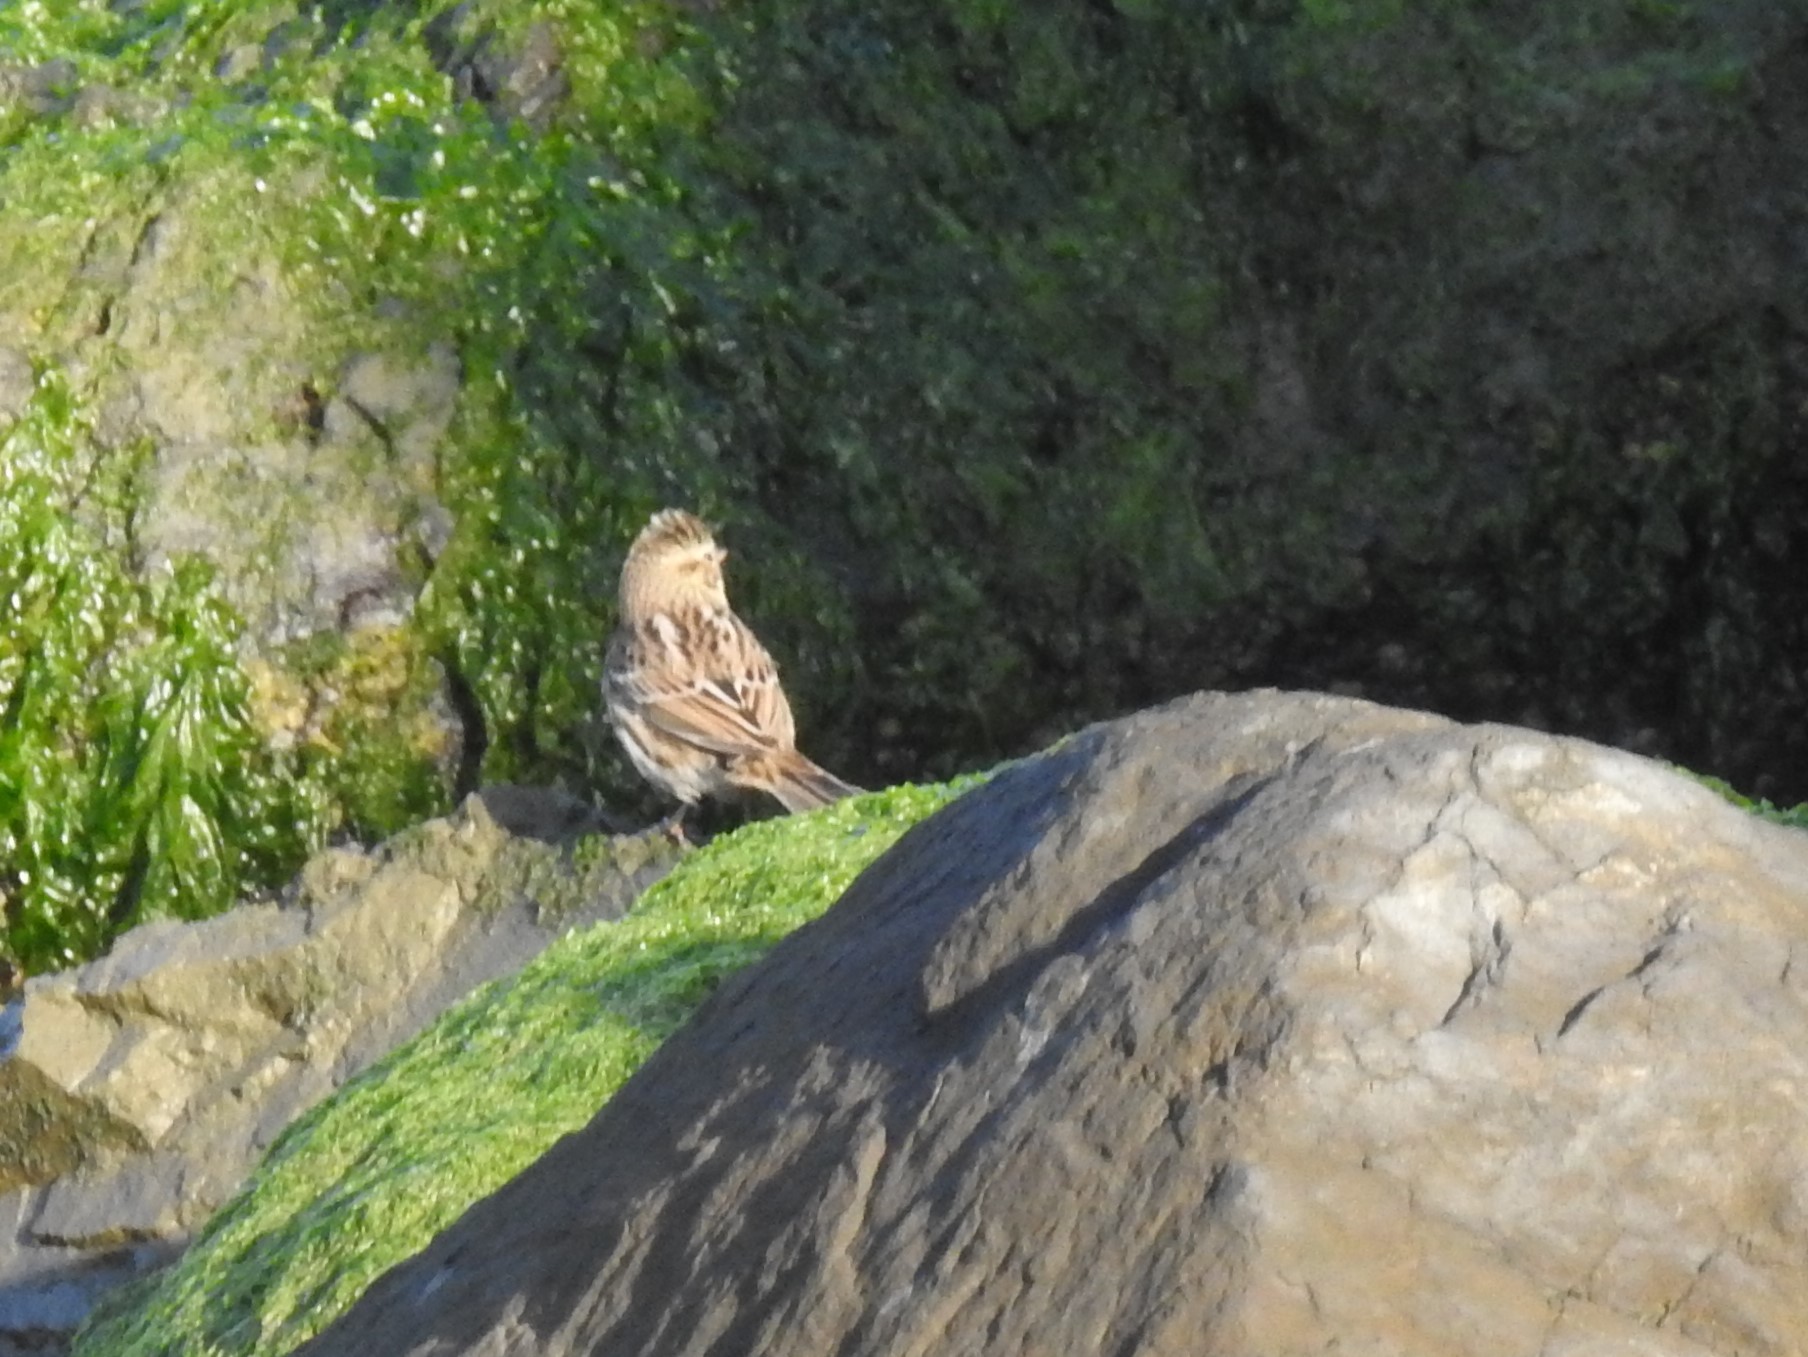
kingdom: Animalia
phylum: Chordata
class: Aves
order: Passeriformes
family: Passerellidae
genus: Passerculus
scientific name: Passerculus sandwichensis
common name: Savannah sparrow
